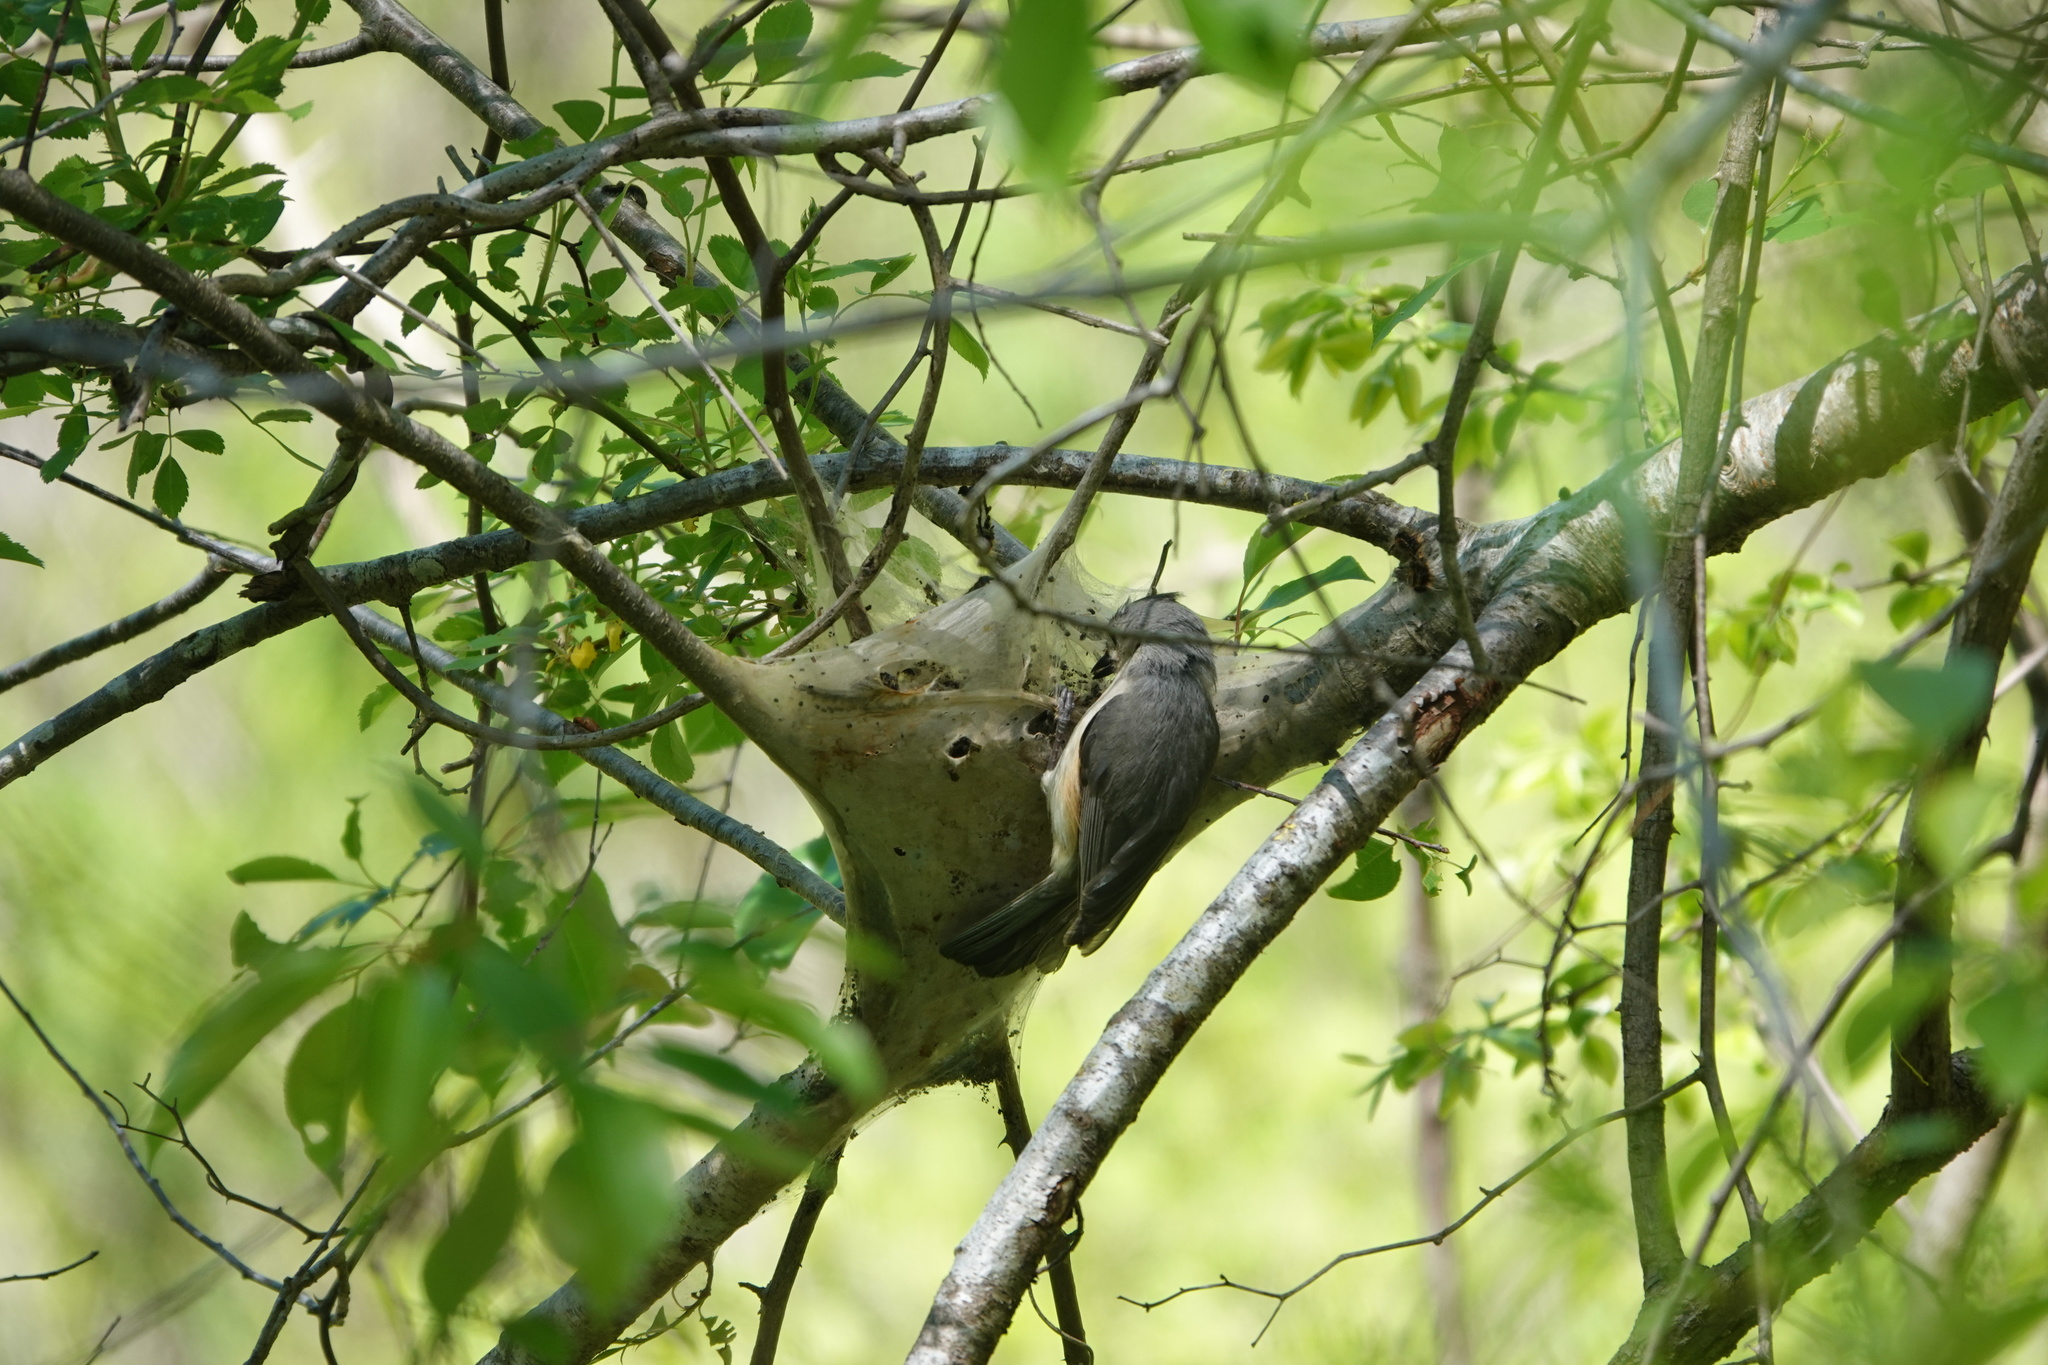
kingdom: Animalia
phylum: Chordata
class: Aves
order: Passeriformes
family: Paridae
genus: Baeolophus
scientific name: Baeolophus bicolor
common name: Tufted titmouse
